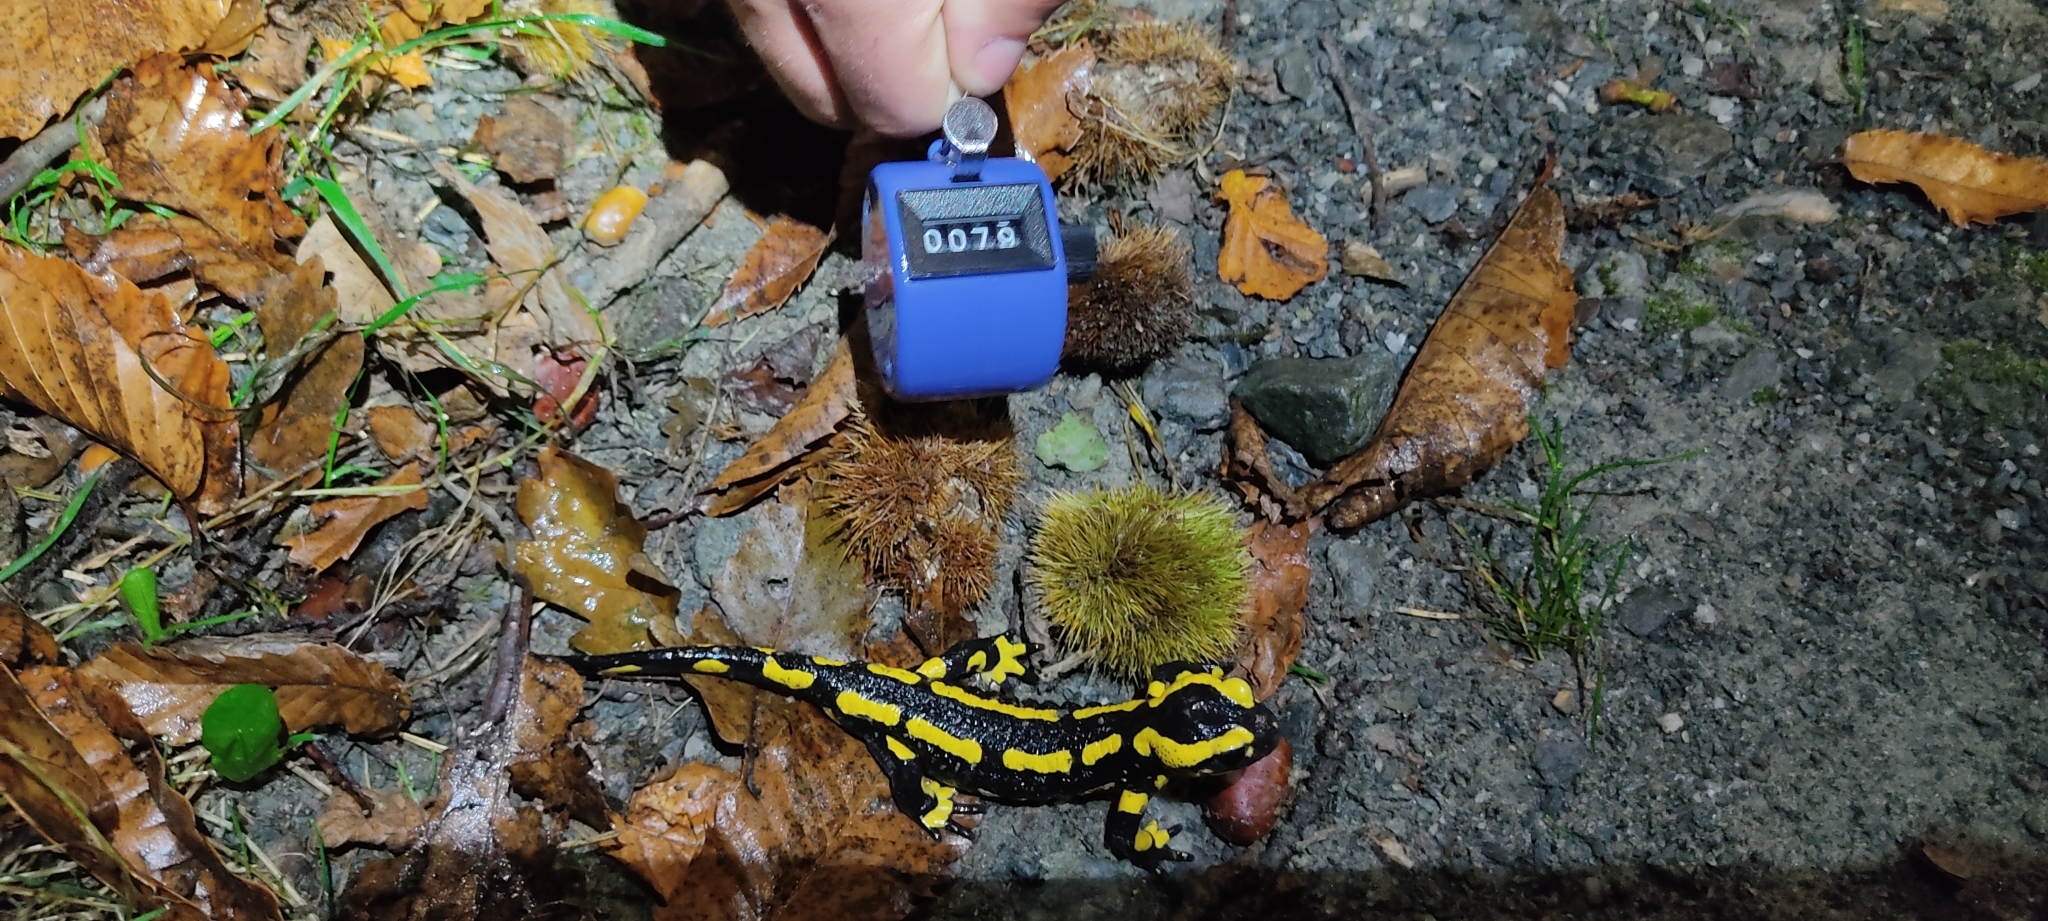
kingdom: Animalia
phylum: Chordata
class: Amphibia
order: Caudata
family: Salamandridae
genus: Salamandra
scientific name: Salamandra salamandra
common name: Fire salamander
